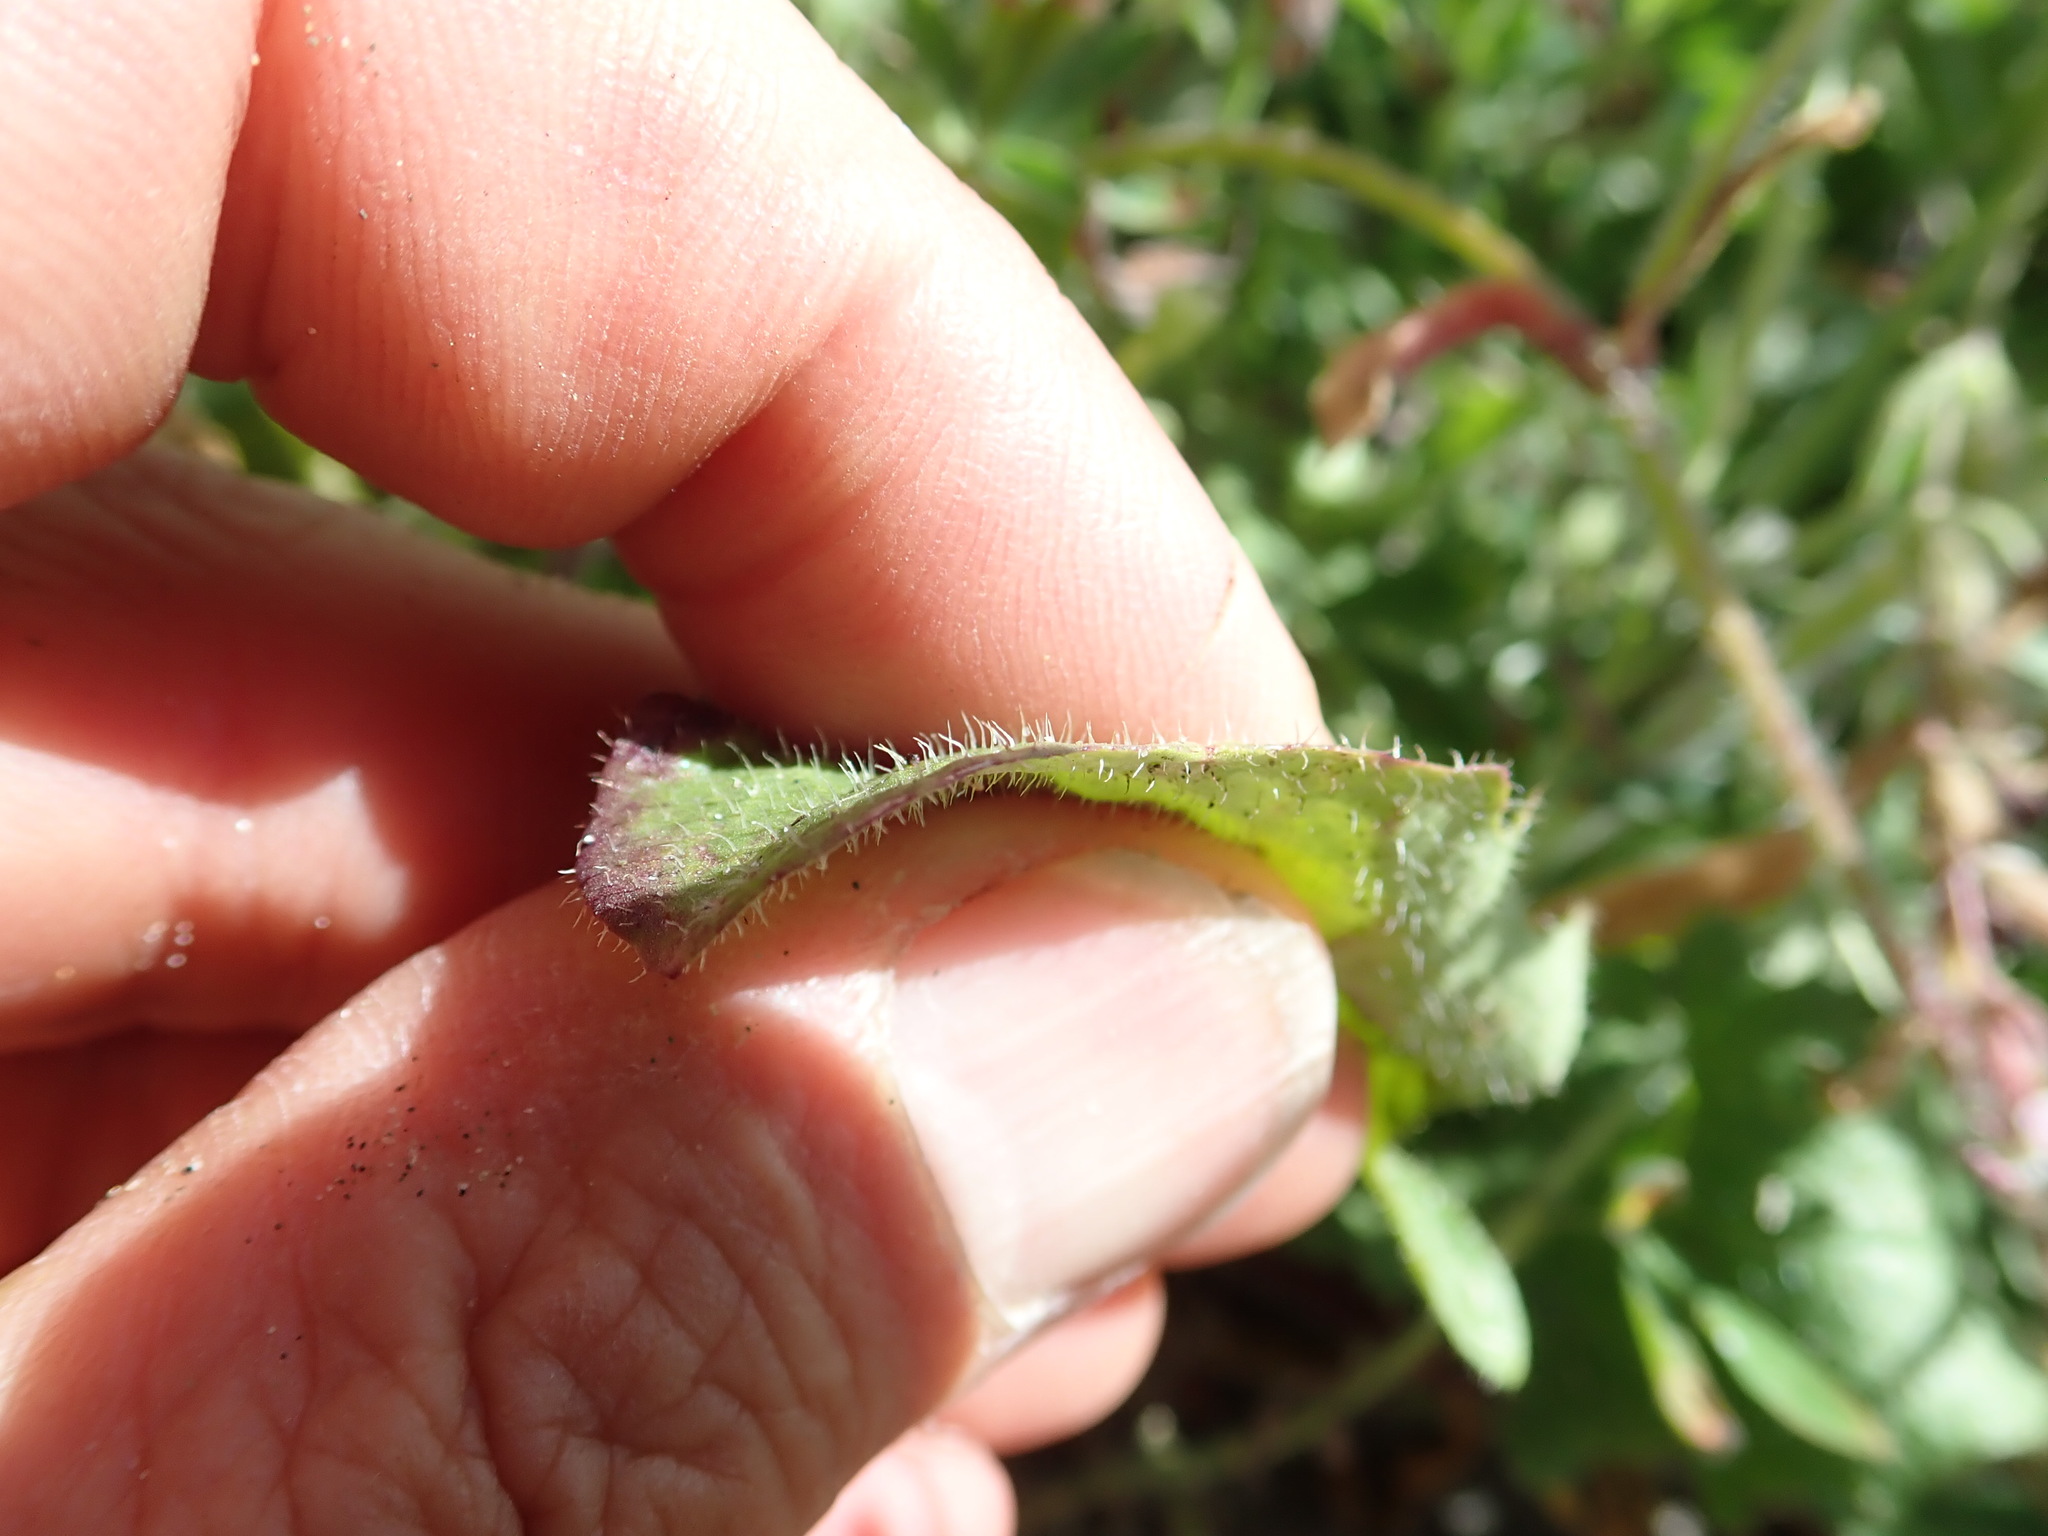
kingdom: Plantae
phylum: Tracheophyta
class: Magnoliopsida
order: Asterales
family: Asteraceae
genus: Hypochaeris
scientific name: Hypochaeris radicata
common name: Flatweed
